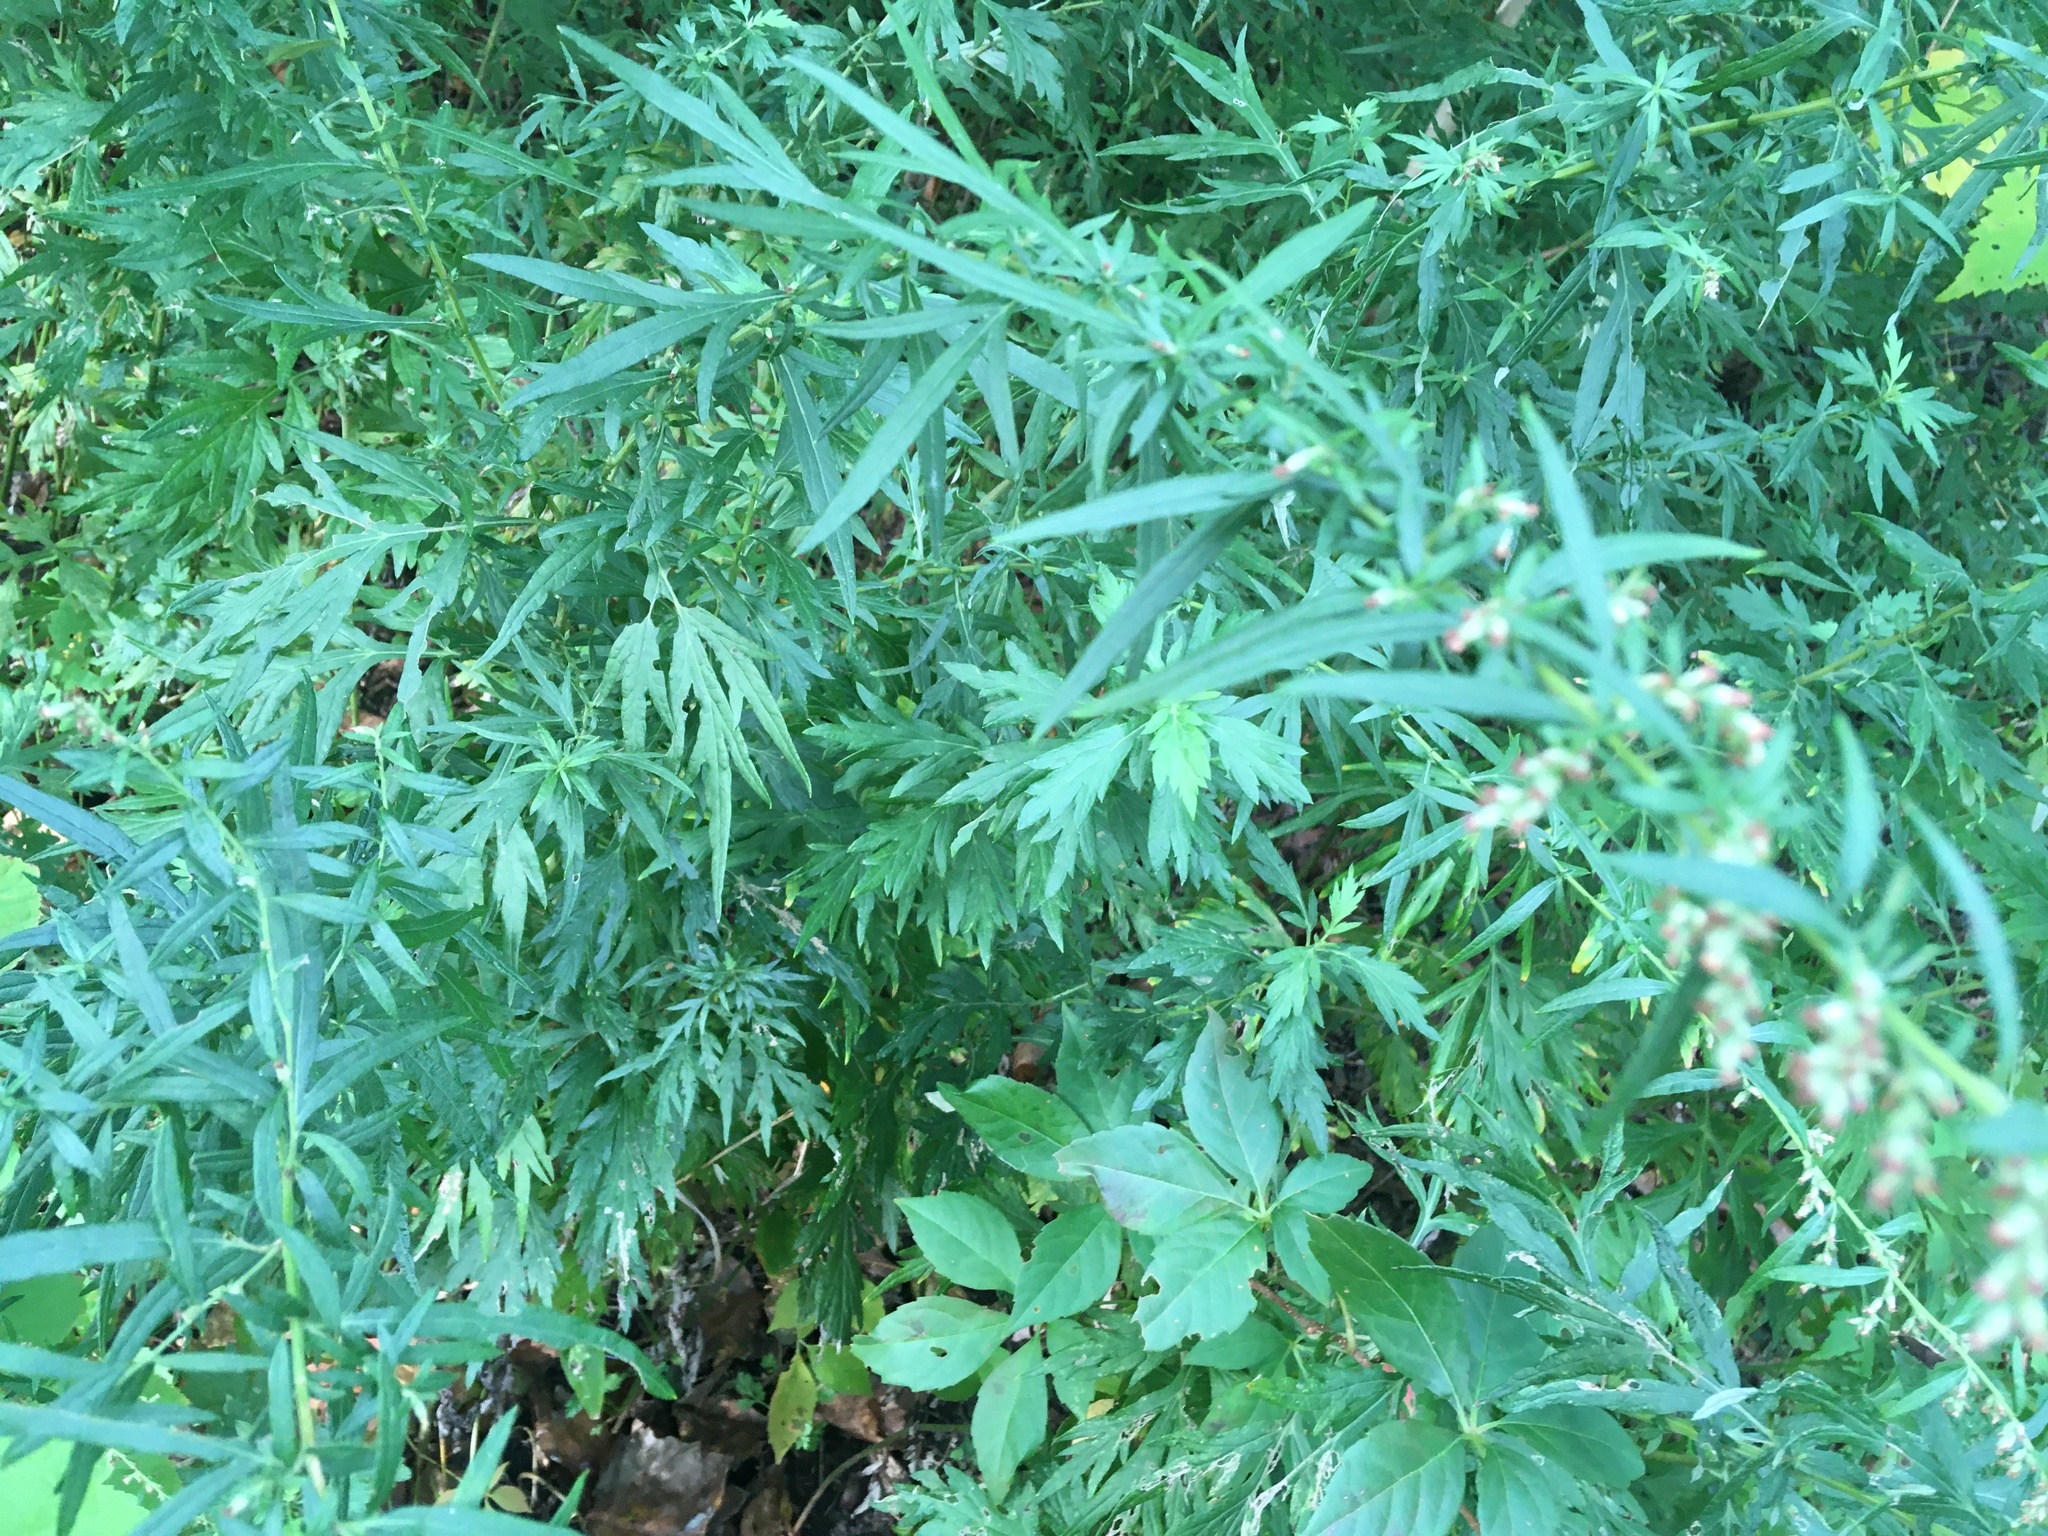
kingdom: Plantae
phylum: Tracheophyta
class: Magnoliopsida
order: Asterales
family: Asteraceae
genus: Artemisia
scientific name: Artemisia vulgaris
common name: Mugwort
